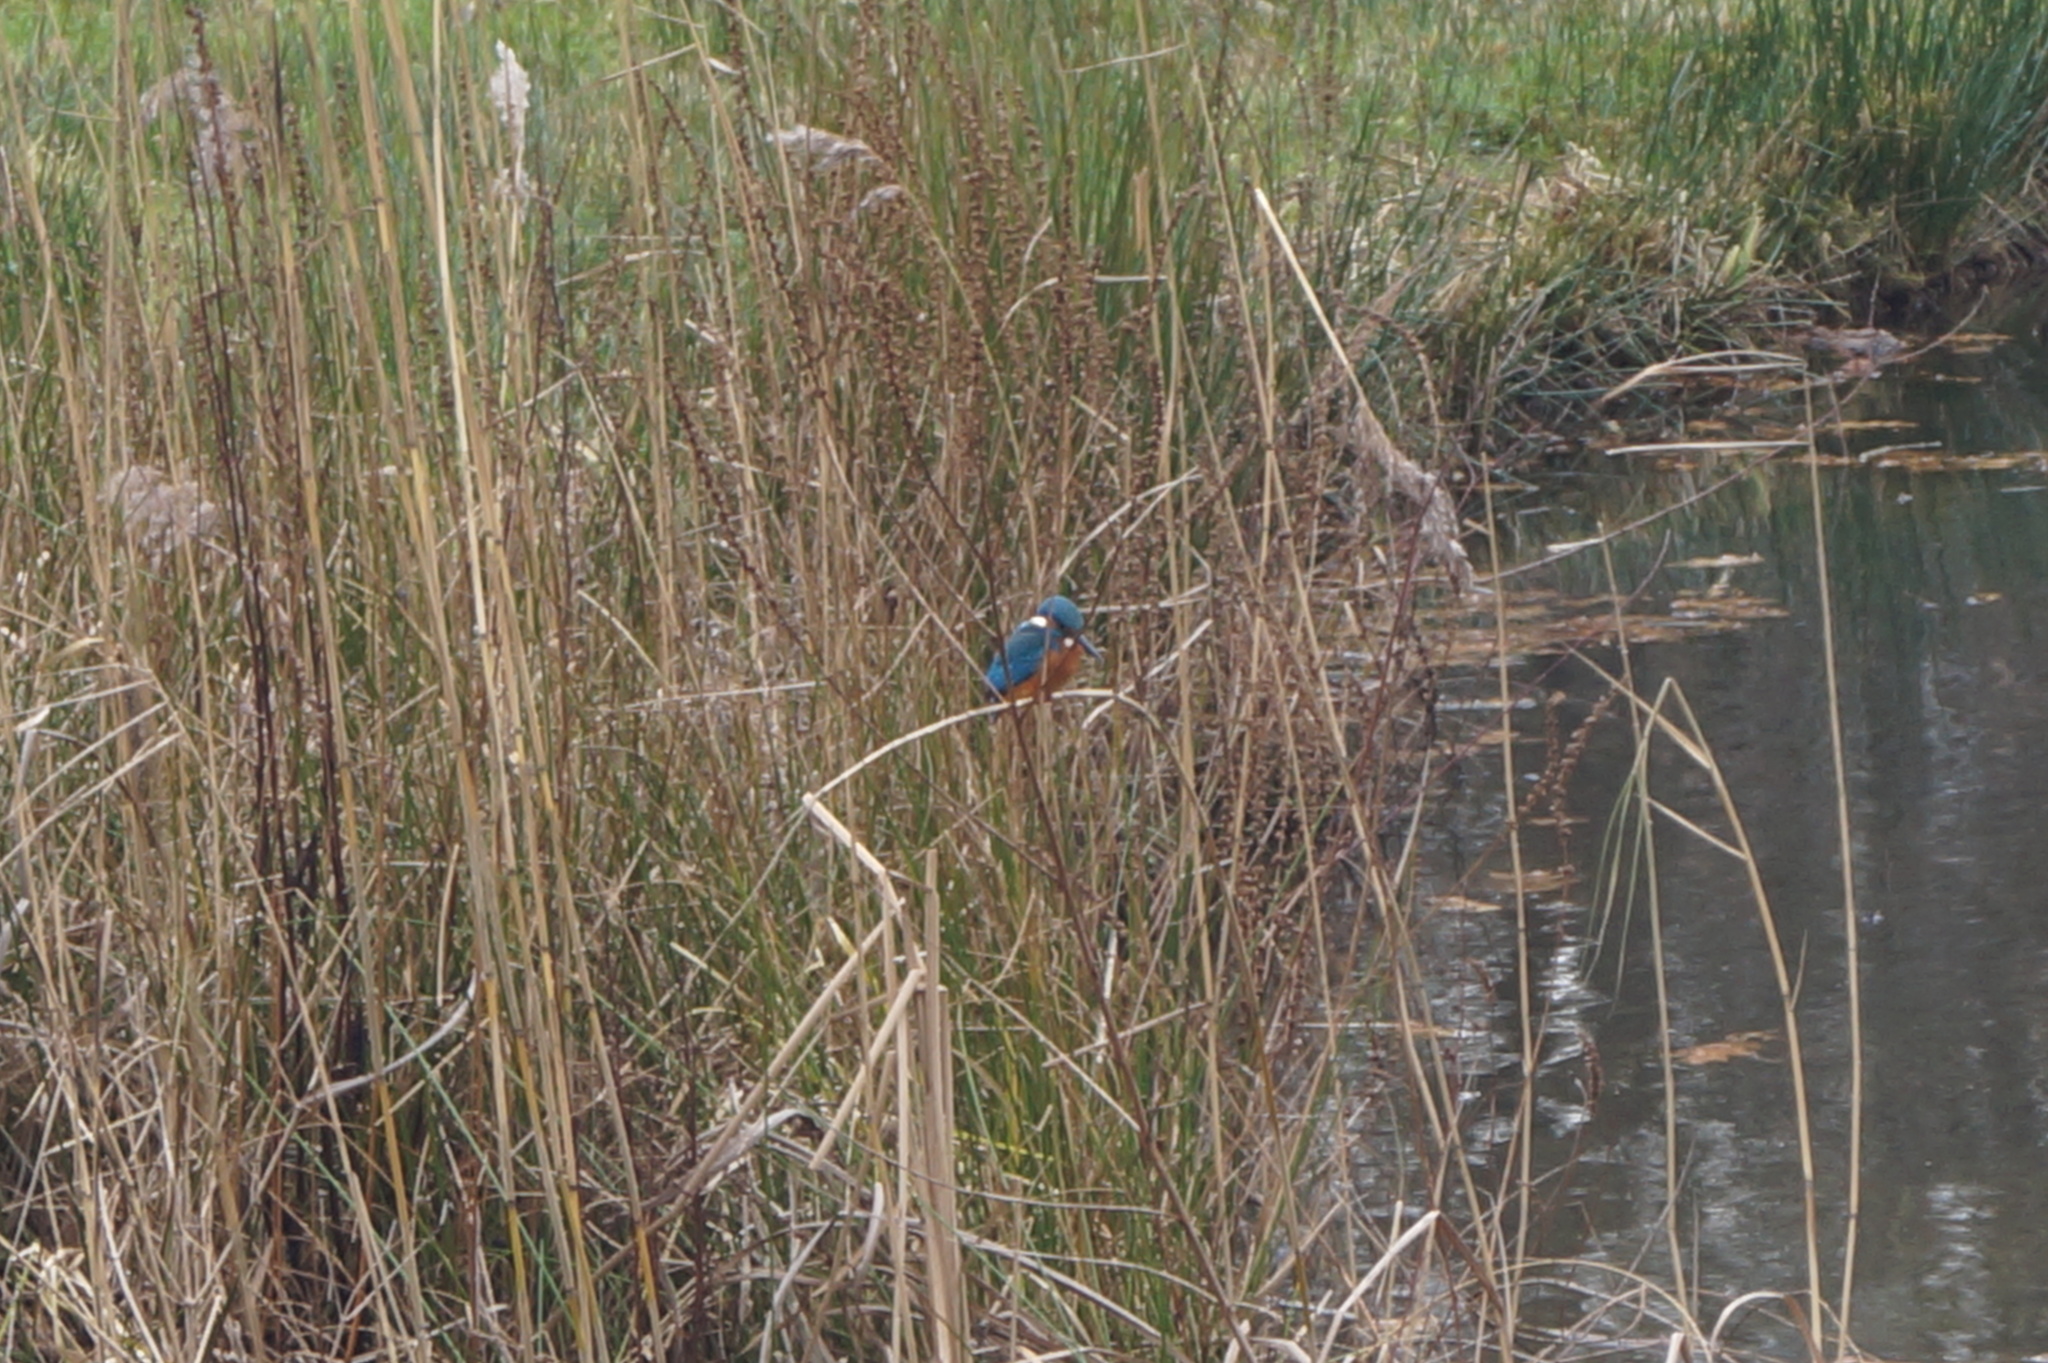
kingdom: Animalia
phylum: Chordata
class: Aves
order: Coraciiformes
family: Alcedinidae
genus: Alcedo
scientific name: Alcedo atthis
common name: Common kingfisher
